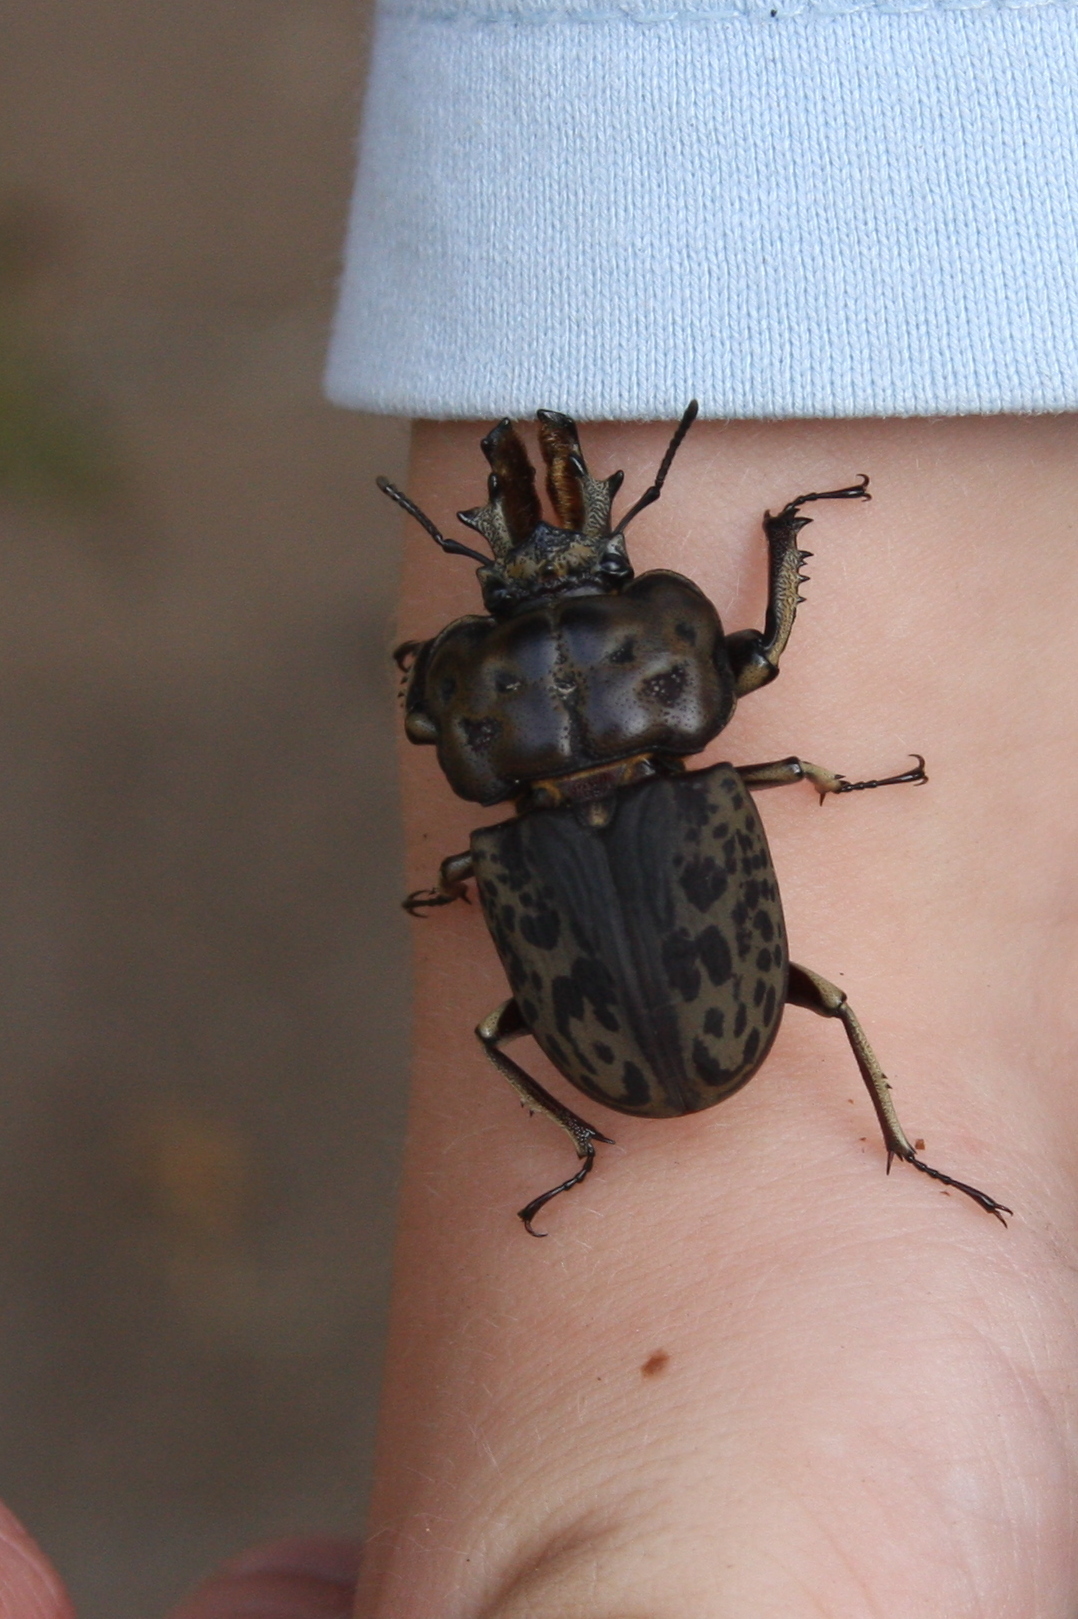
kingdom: Animalia
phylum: Arthropoda
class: Insecta
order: Coleoptera
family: Lucanidae
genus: Ryssonotus
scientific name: Ryssonotus nebulosus
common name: Brown stag beetle
